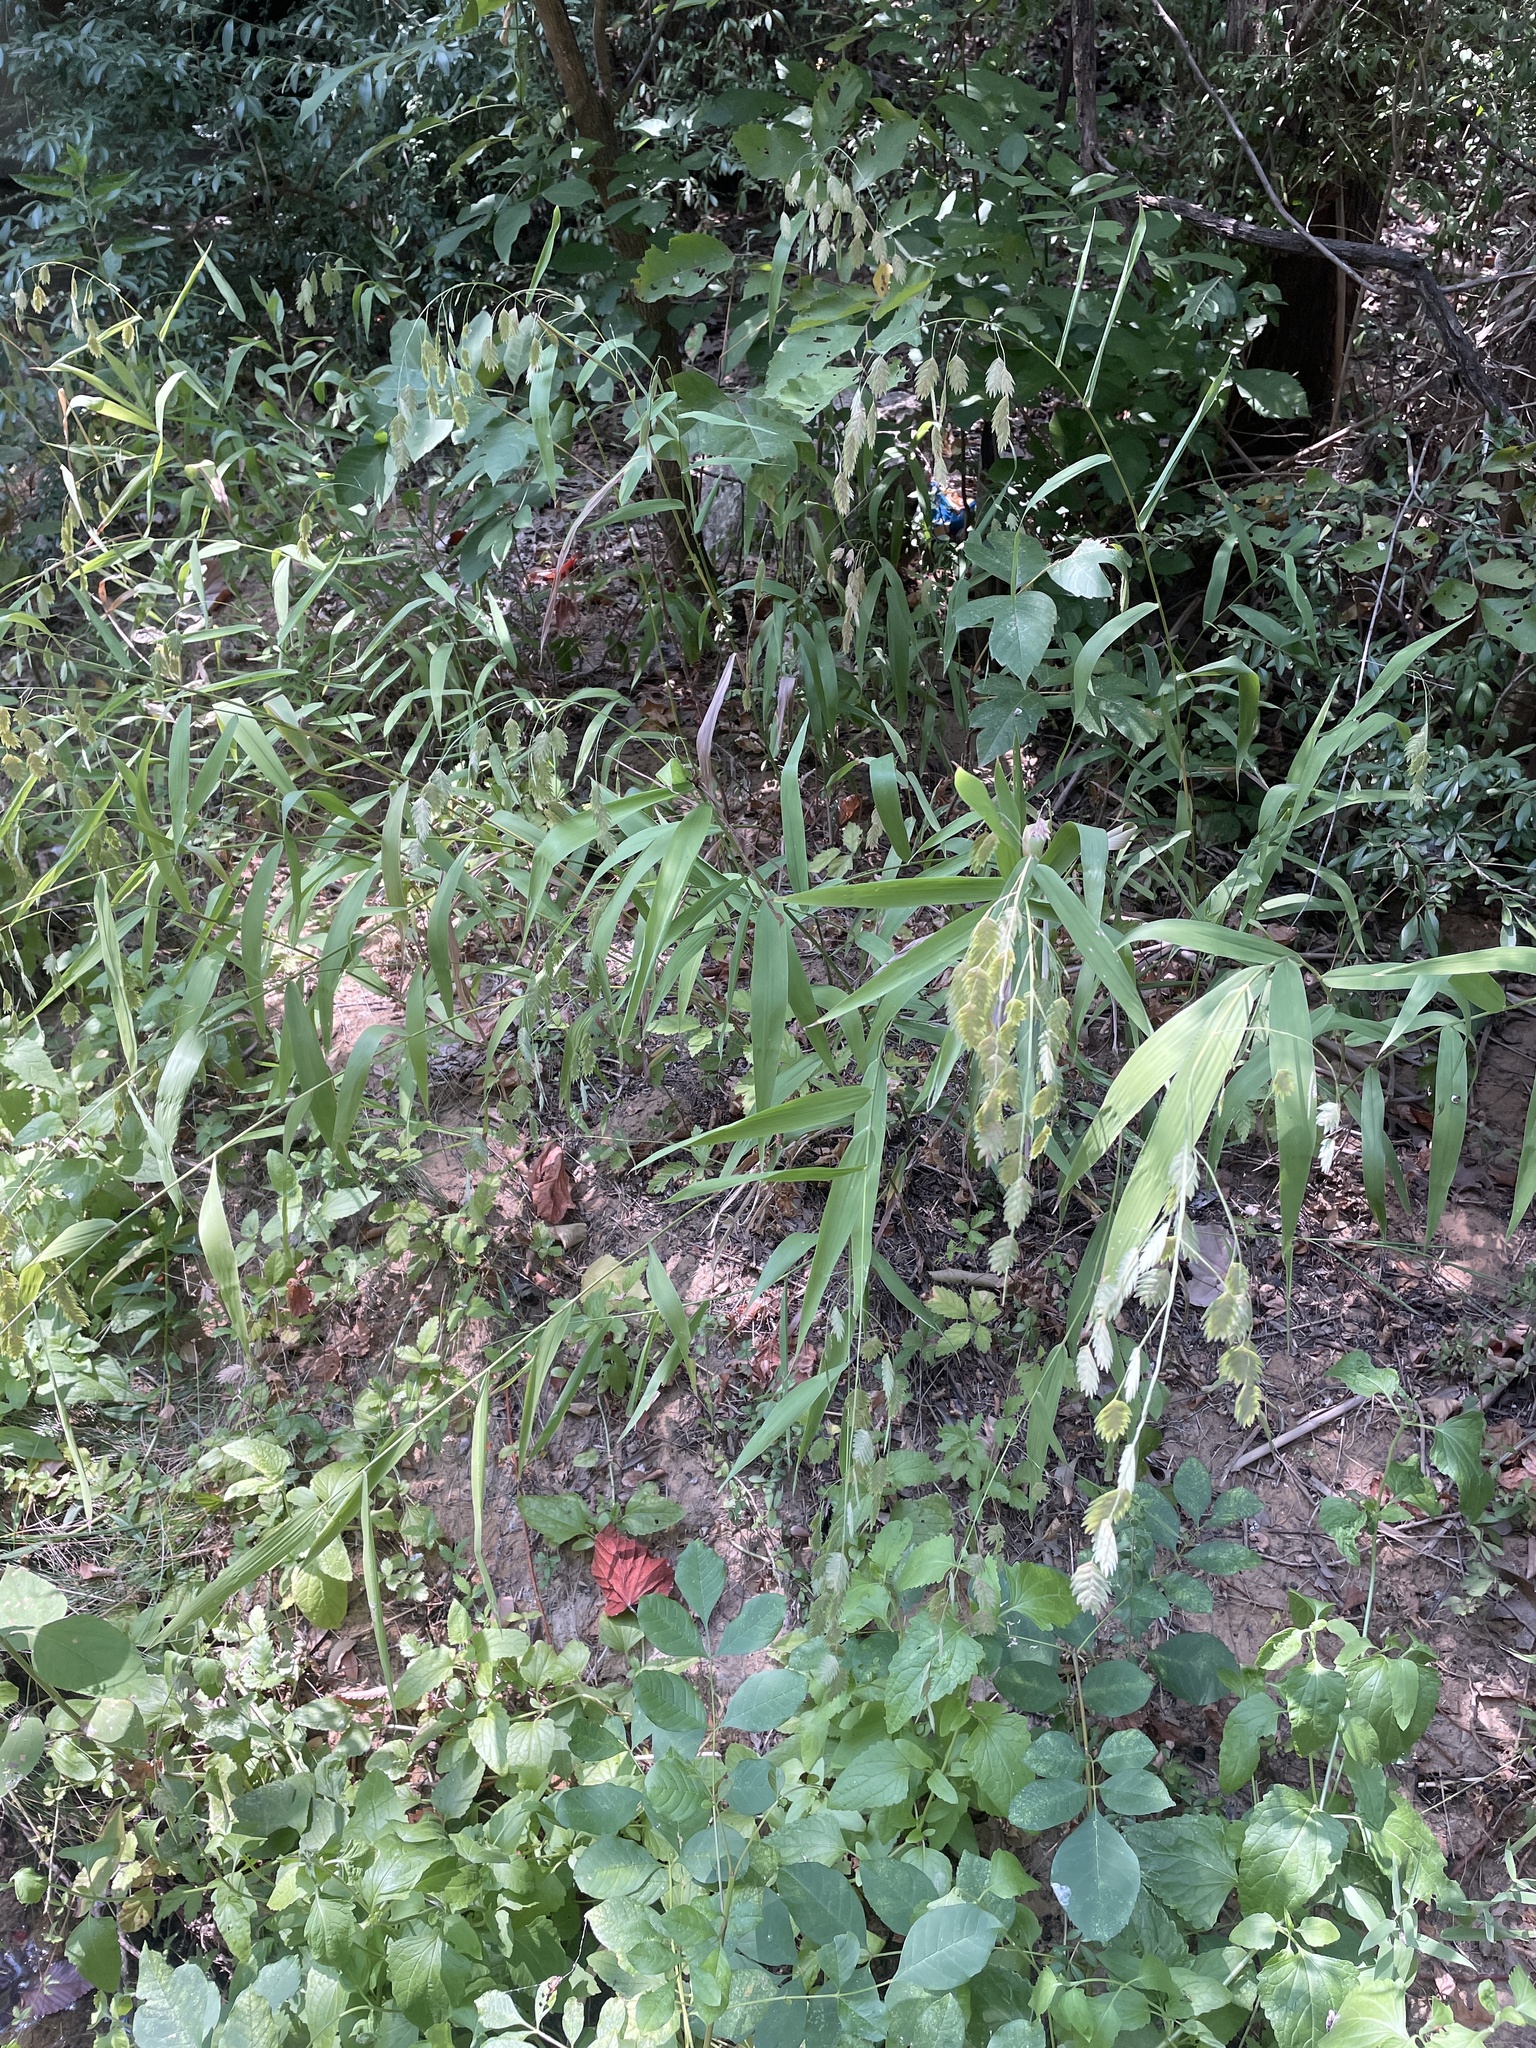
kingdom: Plantae
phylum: Tracheophyta
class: Liliopsida
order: Poales
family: Poaceae
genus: Chasmanthium
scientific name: Chasmanthium latifolium
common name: Broad-leaved chasmanthium
